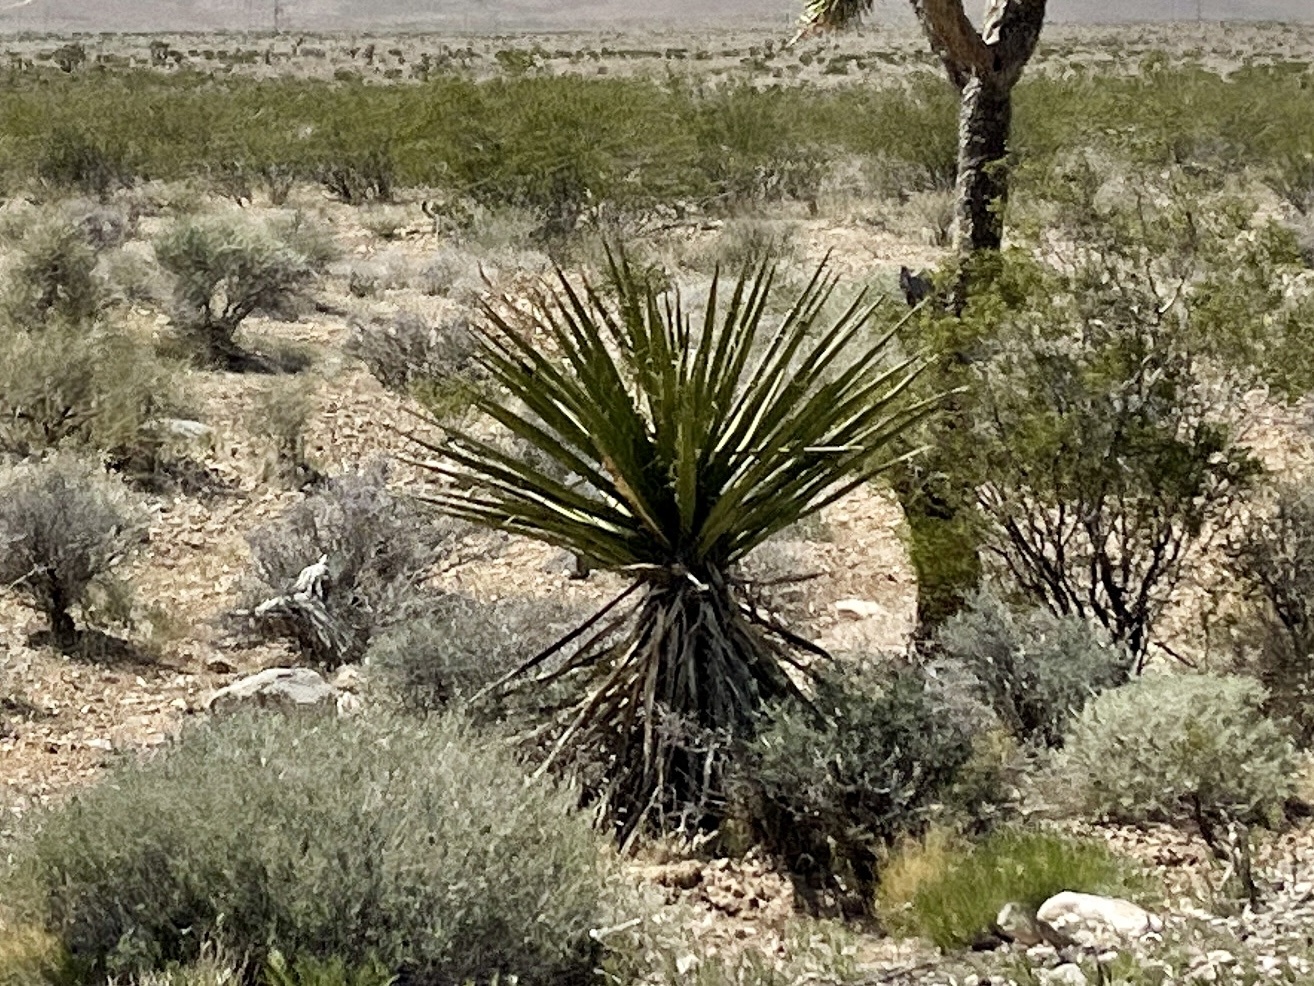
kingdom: Plantae
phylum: Tracheophyta
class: Liliopsida
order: Asparagales
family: Asparagaceae
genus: Yucca
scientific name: Yucca schidigera
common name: Mojave yucca
